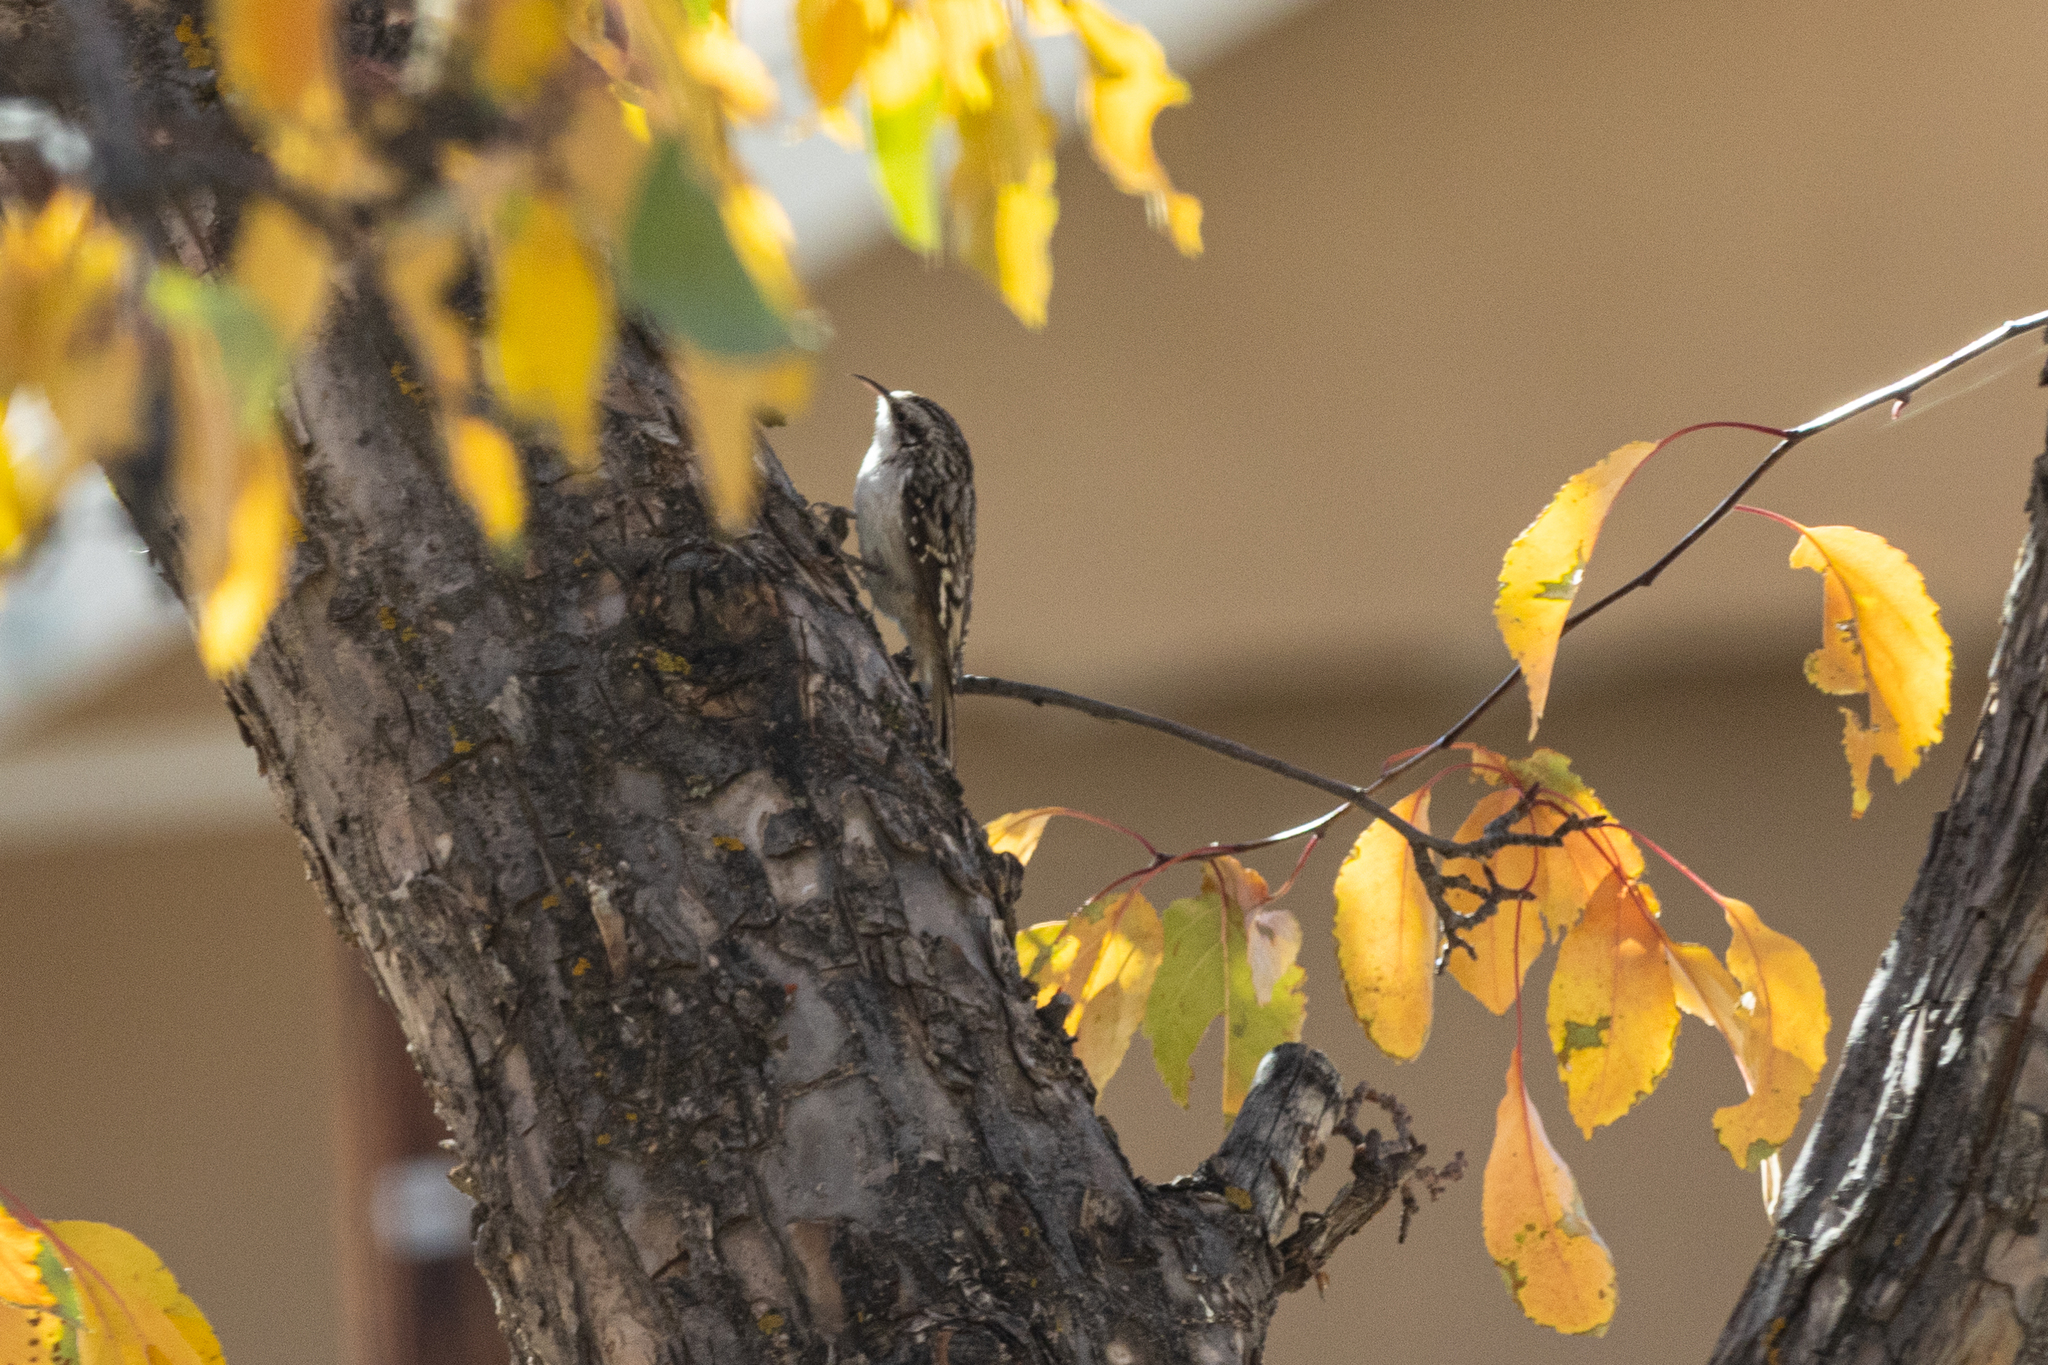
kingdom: Animalia
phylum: Chordata
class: Aves
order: Passeriformes
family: Certhiidae
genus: Certhia
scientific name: Certhia americana
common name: Brown creeper
